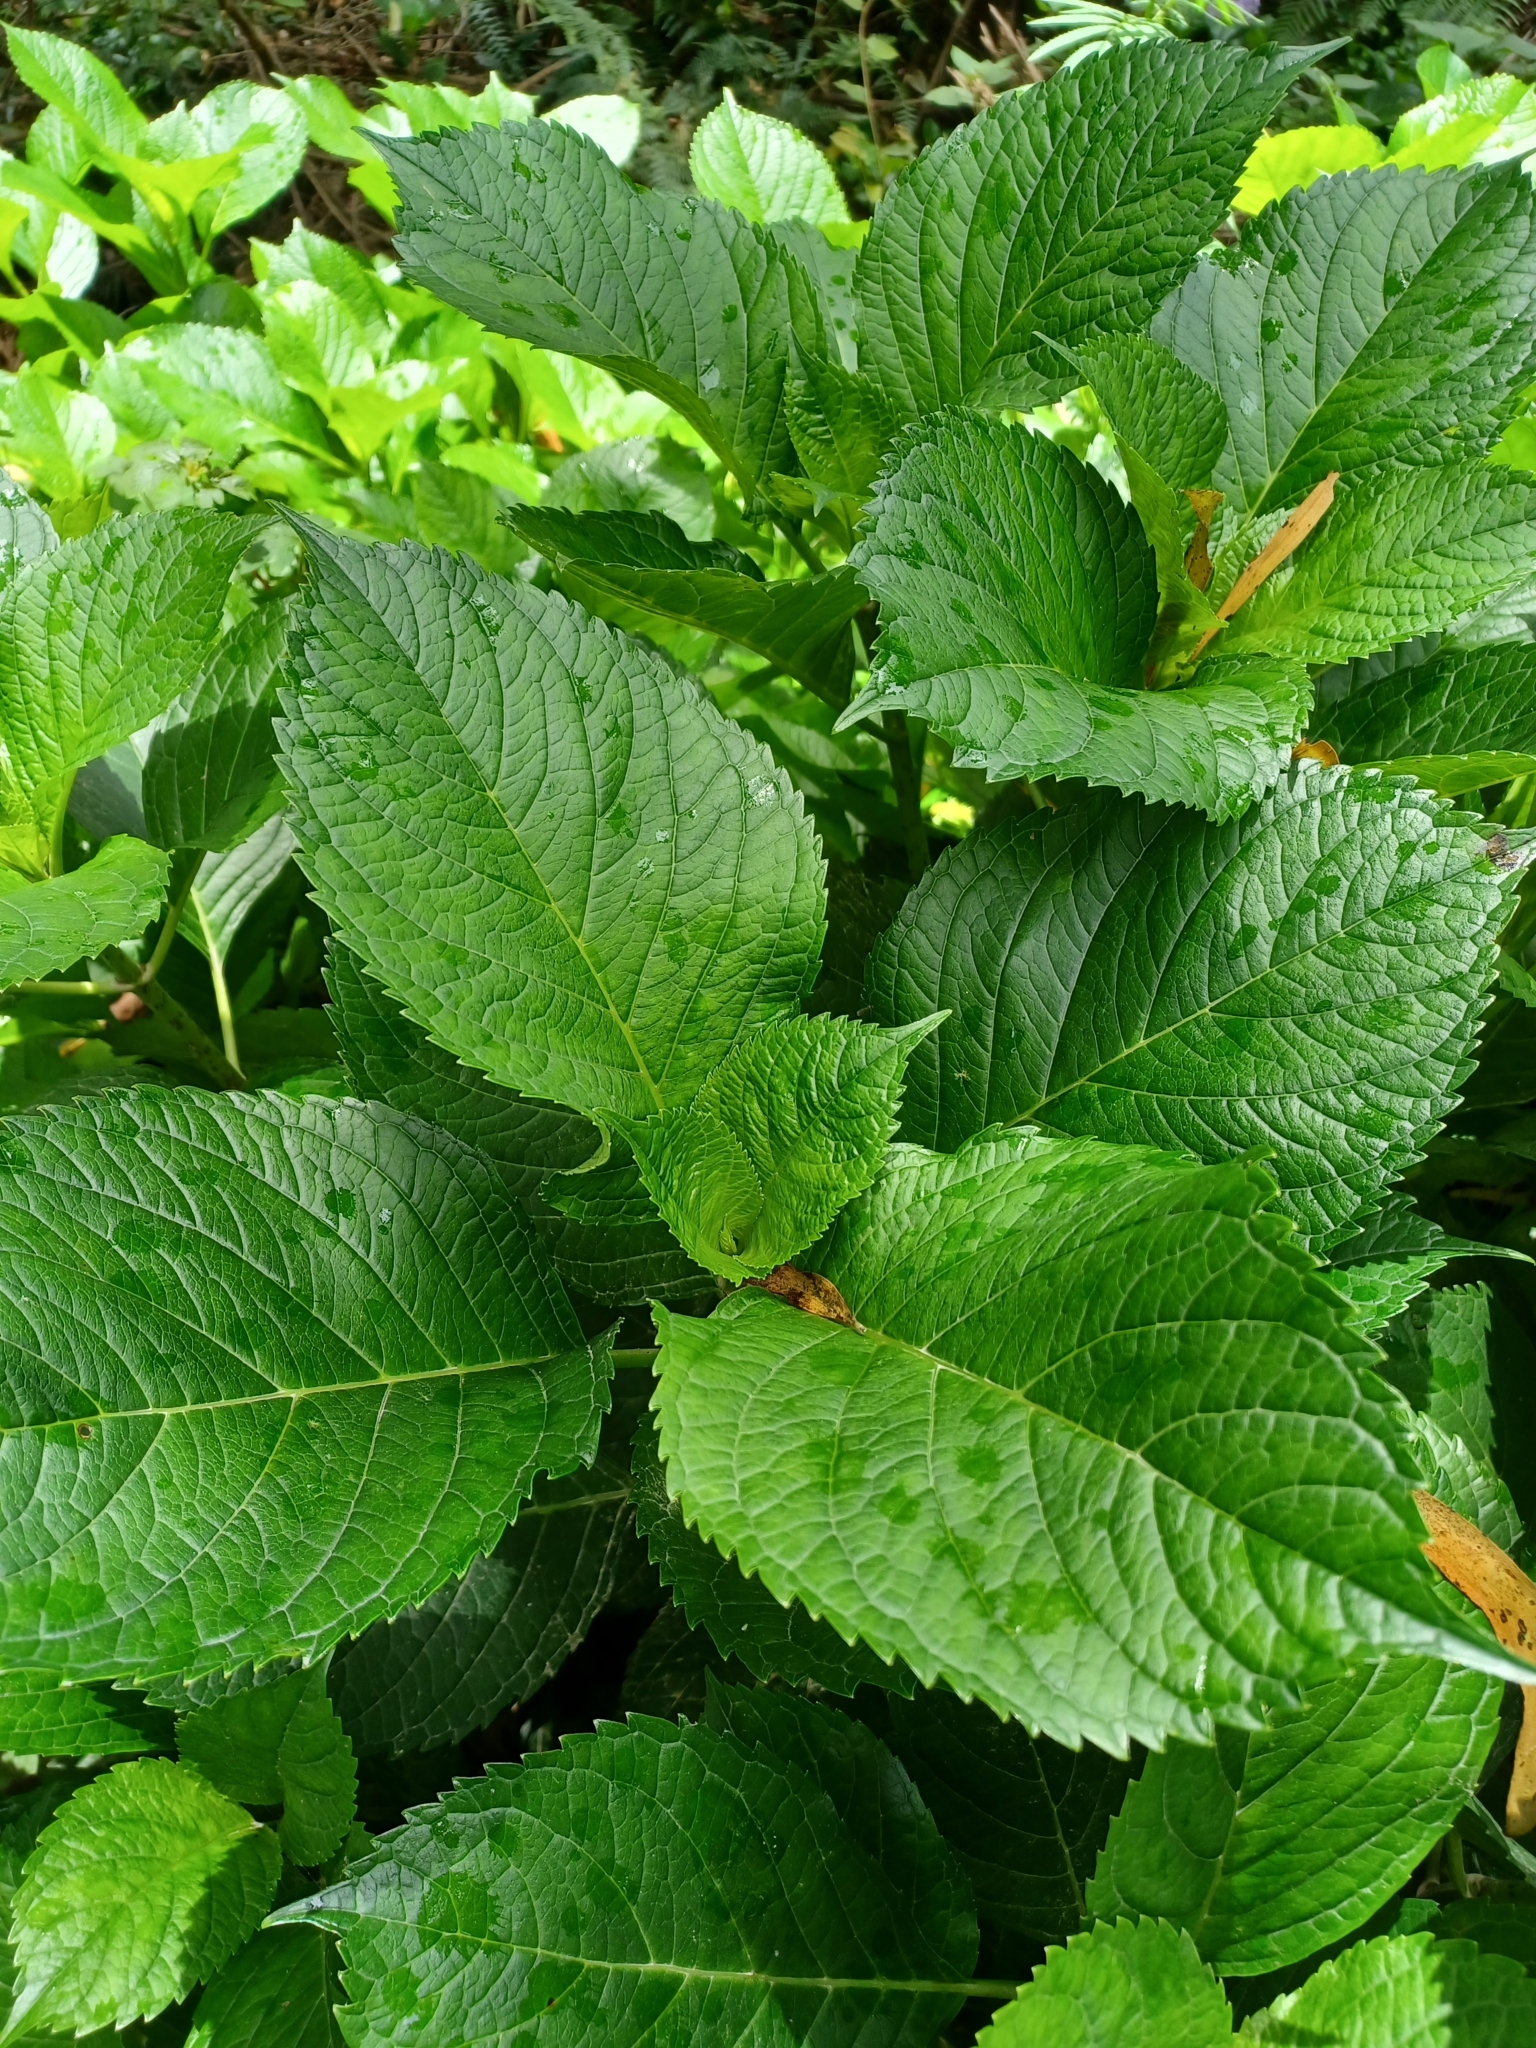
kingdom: Plantae
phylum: Tracheophyta
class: Magnoliopsida
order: Cornales
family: Hydrangeaceae
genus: Hydrangea
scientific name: Hydrangea macrophylla
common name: Hydrangea
